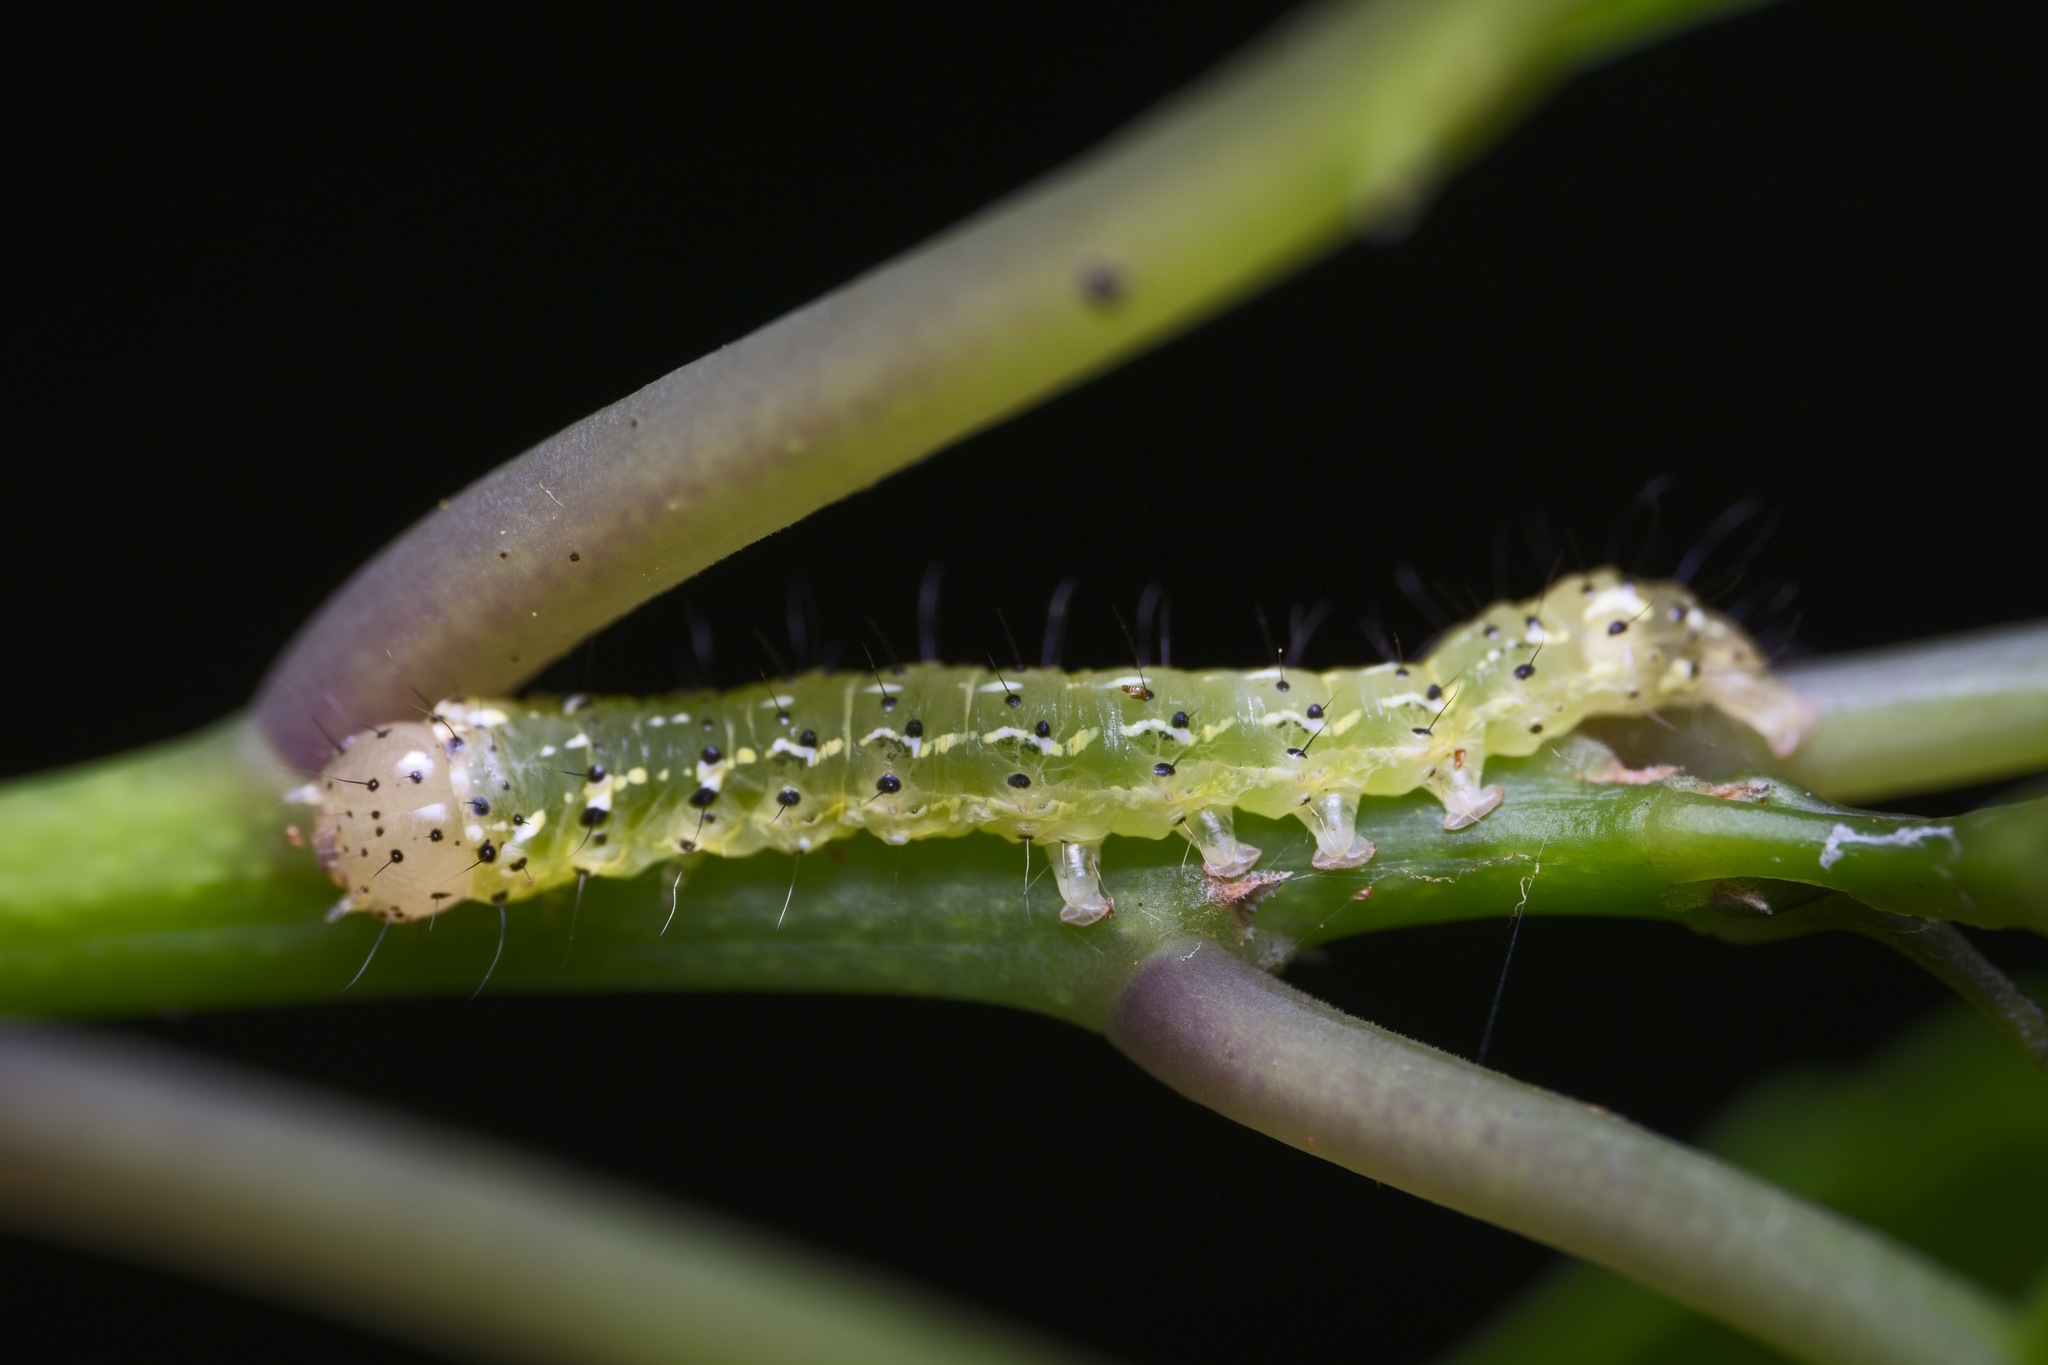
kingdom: Animalia
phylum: Arthropoda
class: Insecta
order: Lepidoptera
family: Noctuidae
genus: Feredayia
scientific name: Feredayia grammosa
